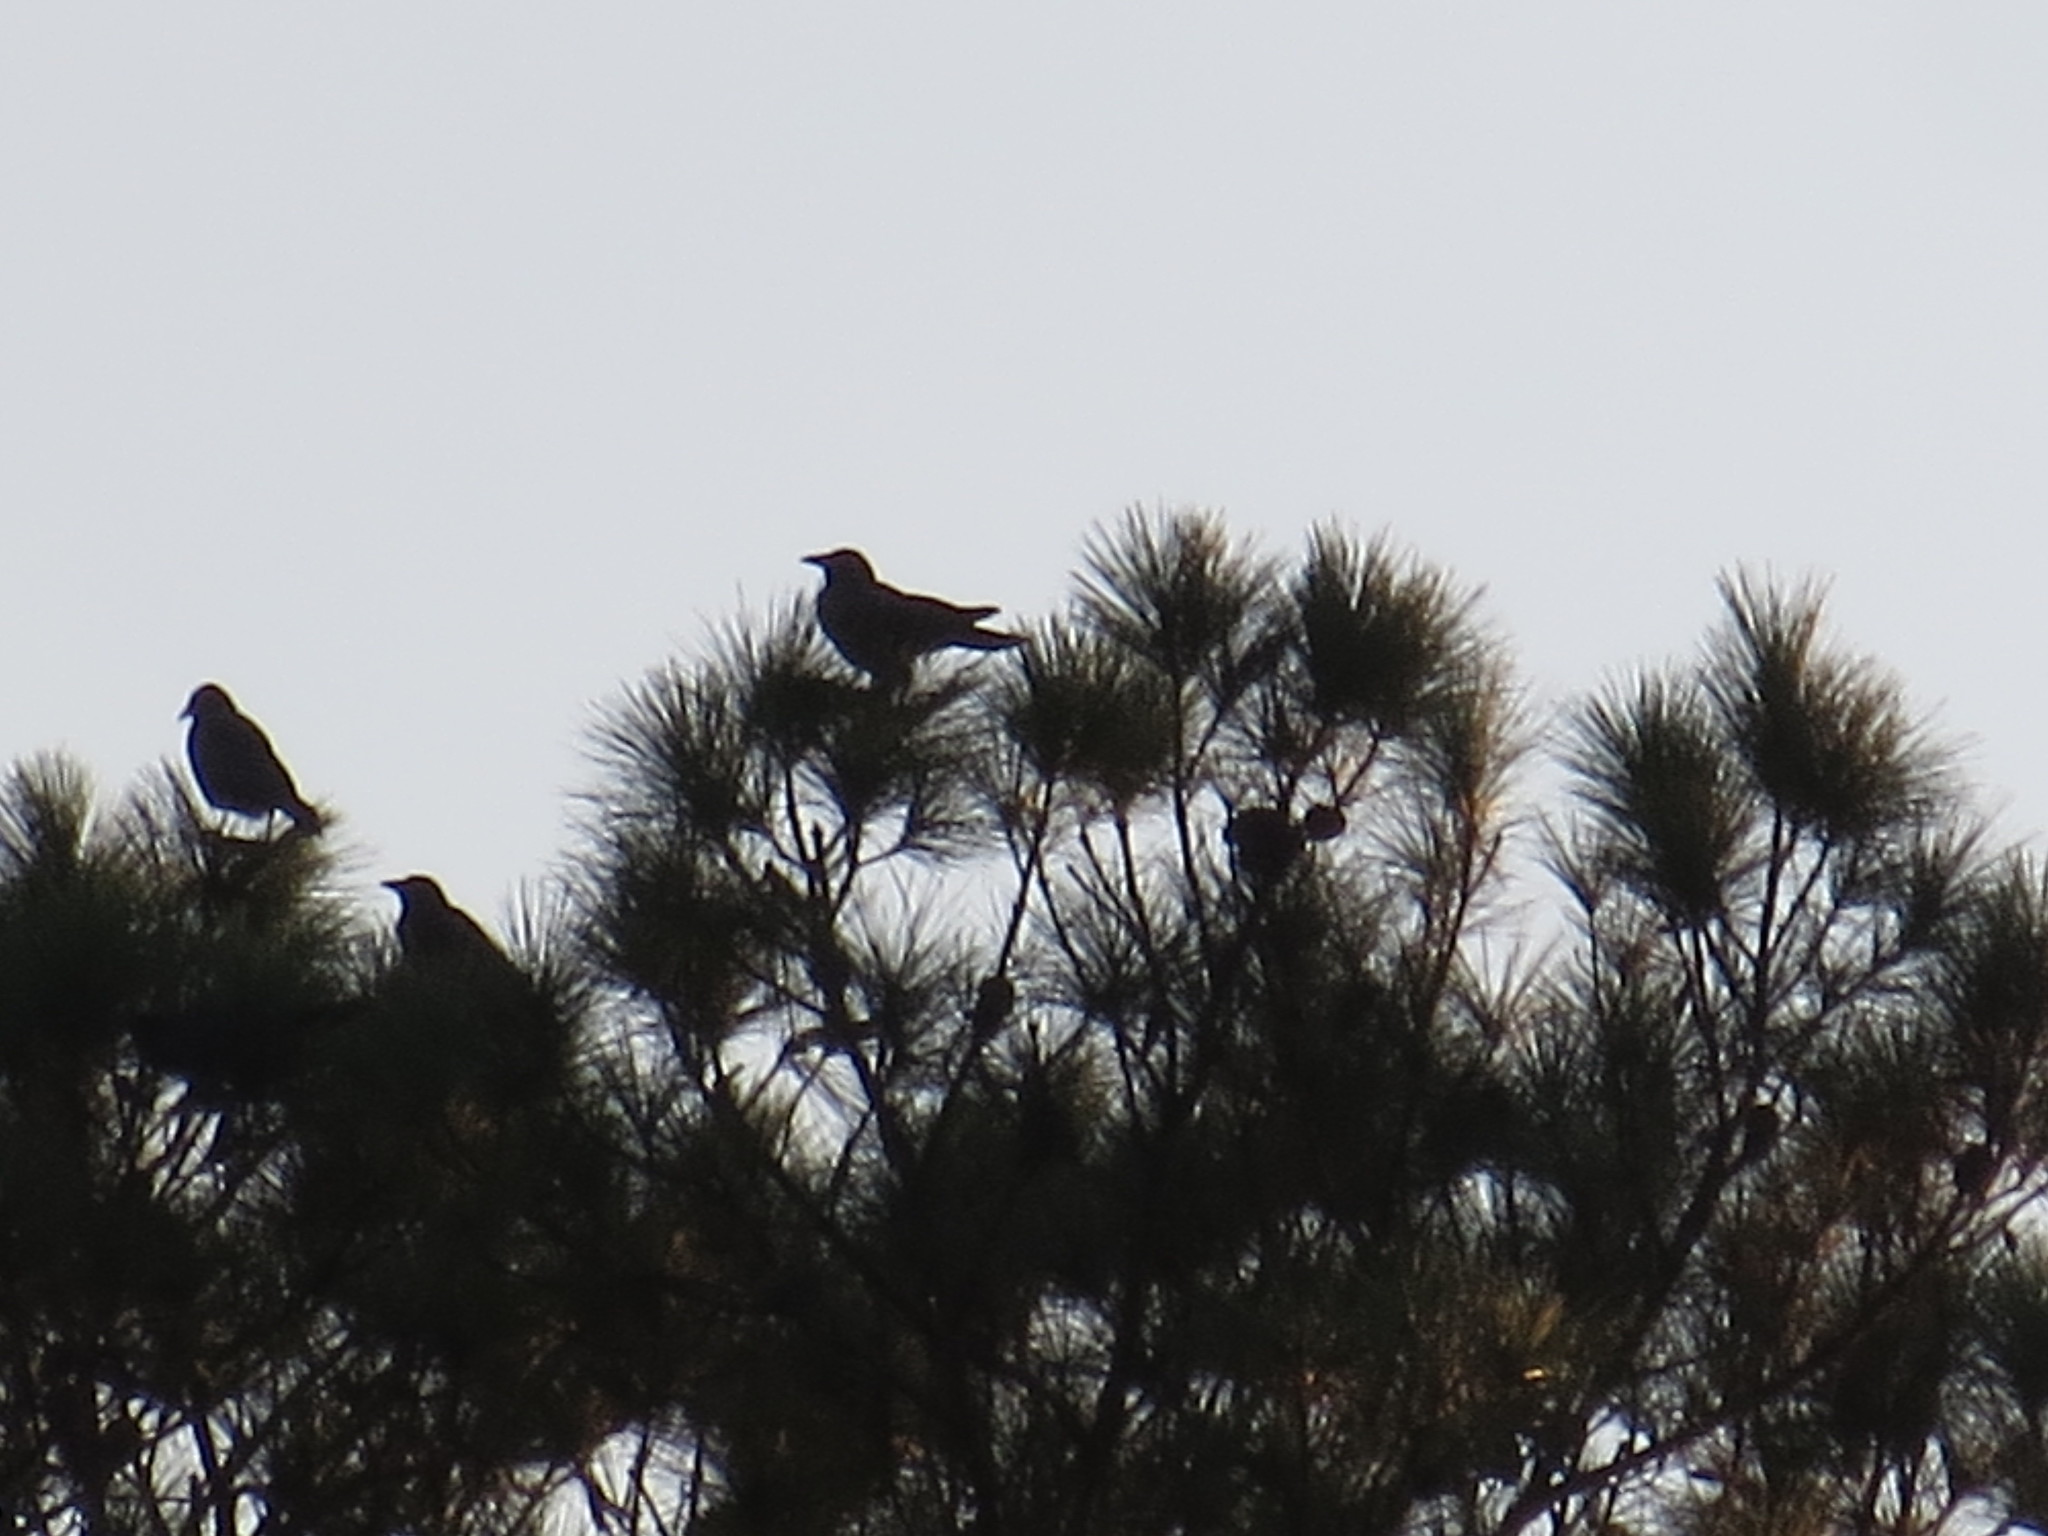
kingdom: Animalia
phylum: Chordata
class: Aves
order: Passeriformes
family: Corvidae
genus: Corvus
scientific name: Corvus ossifragus
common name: Fish crow
